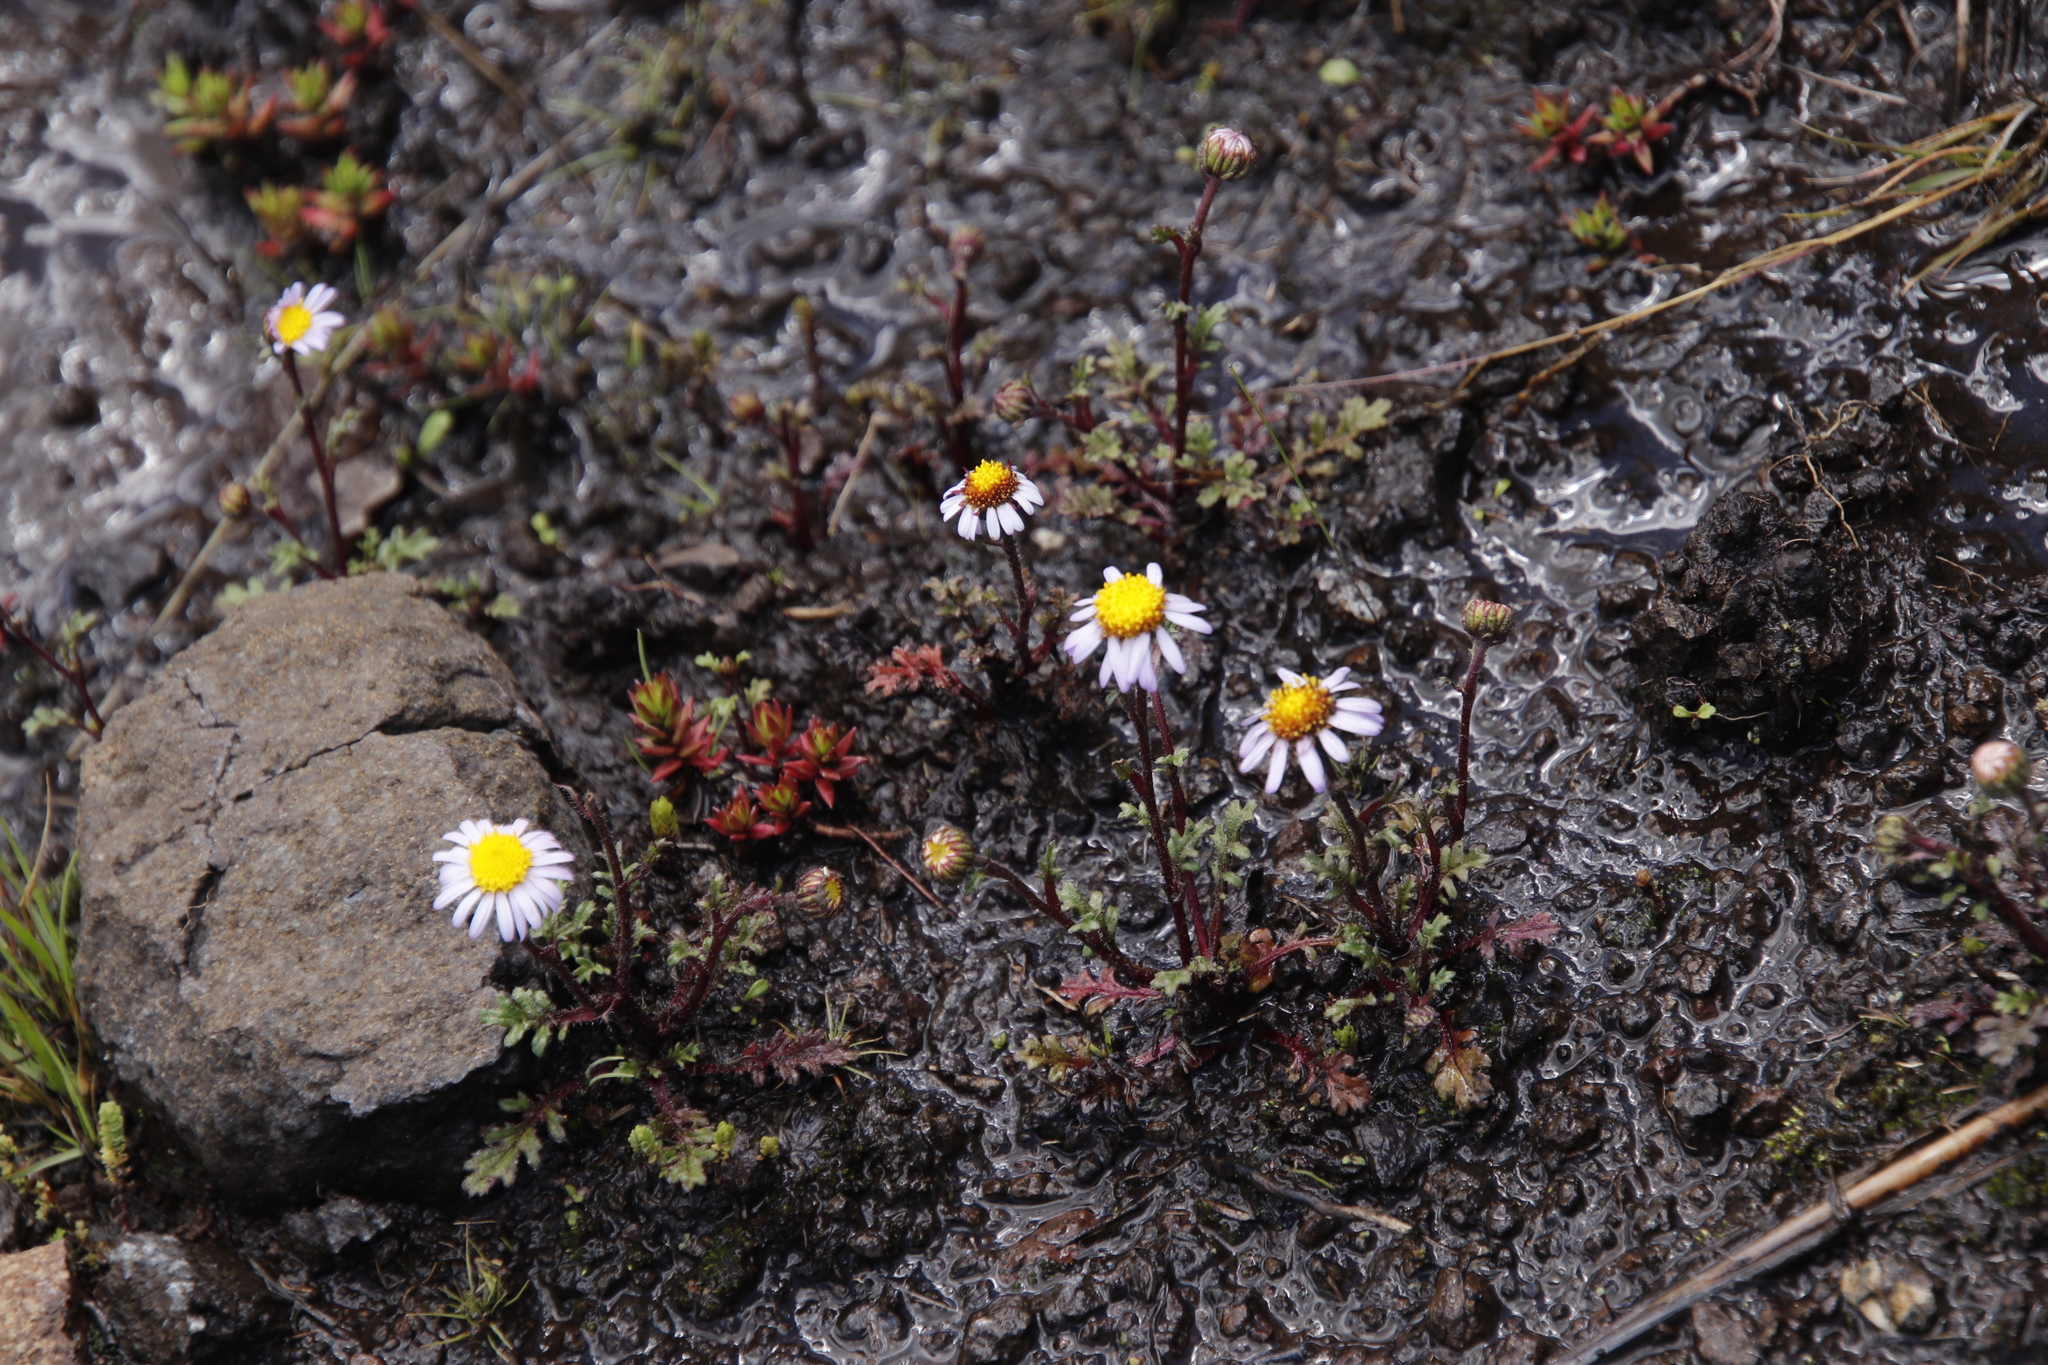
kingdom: Plantae
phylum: Tracheophyta
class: Magnoliopsida
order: Asterales
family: Asteraceae
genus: Afroaster
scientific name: Afroaster erucifolius
